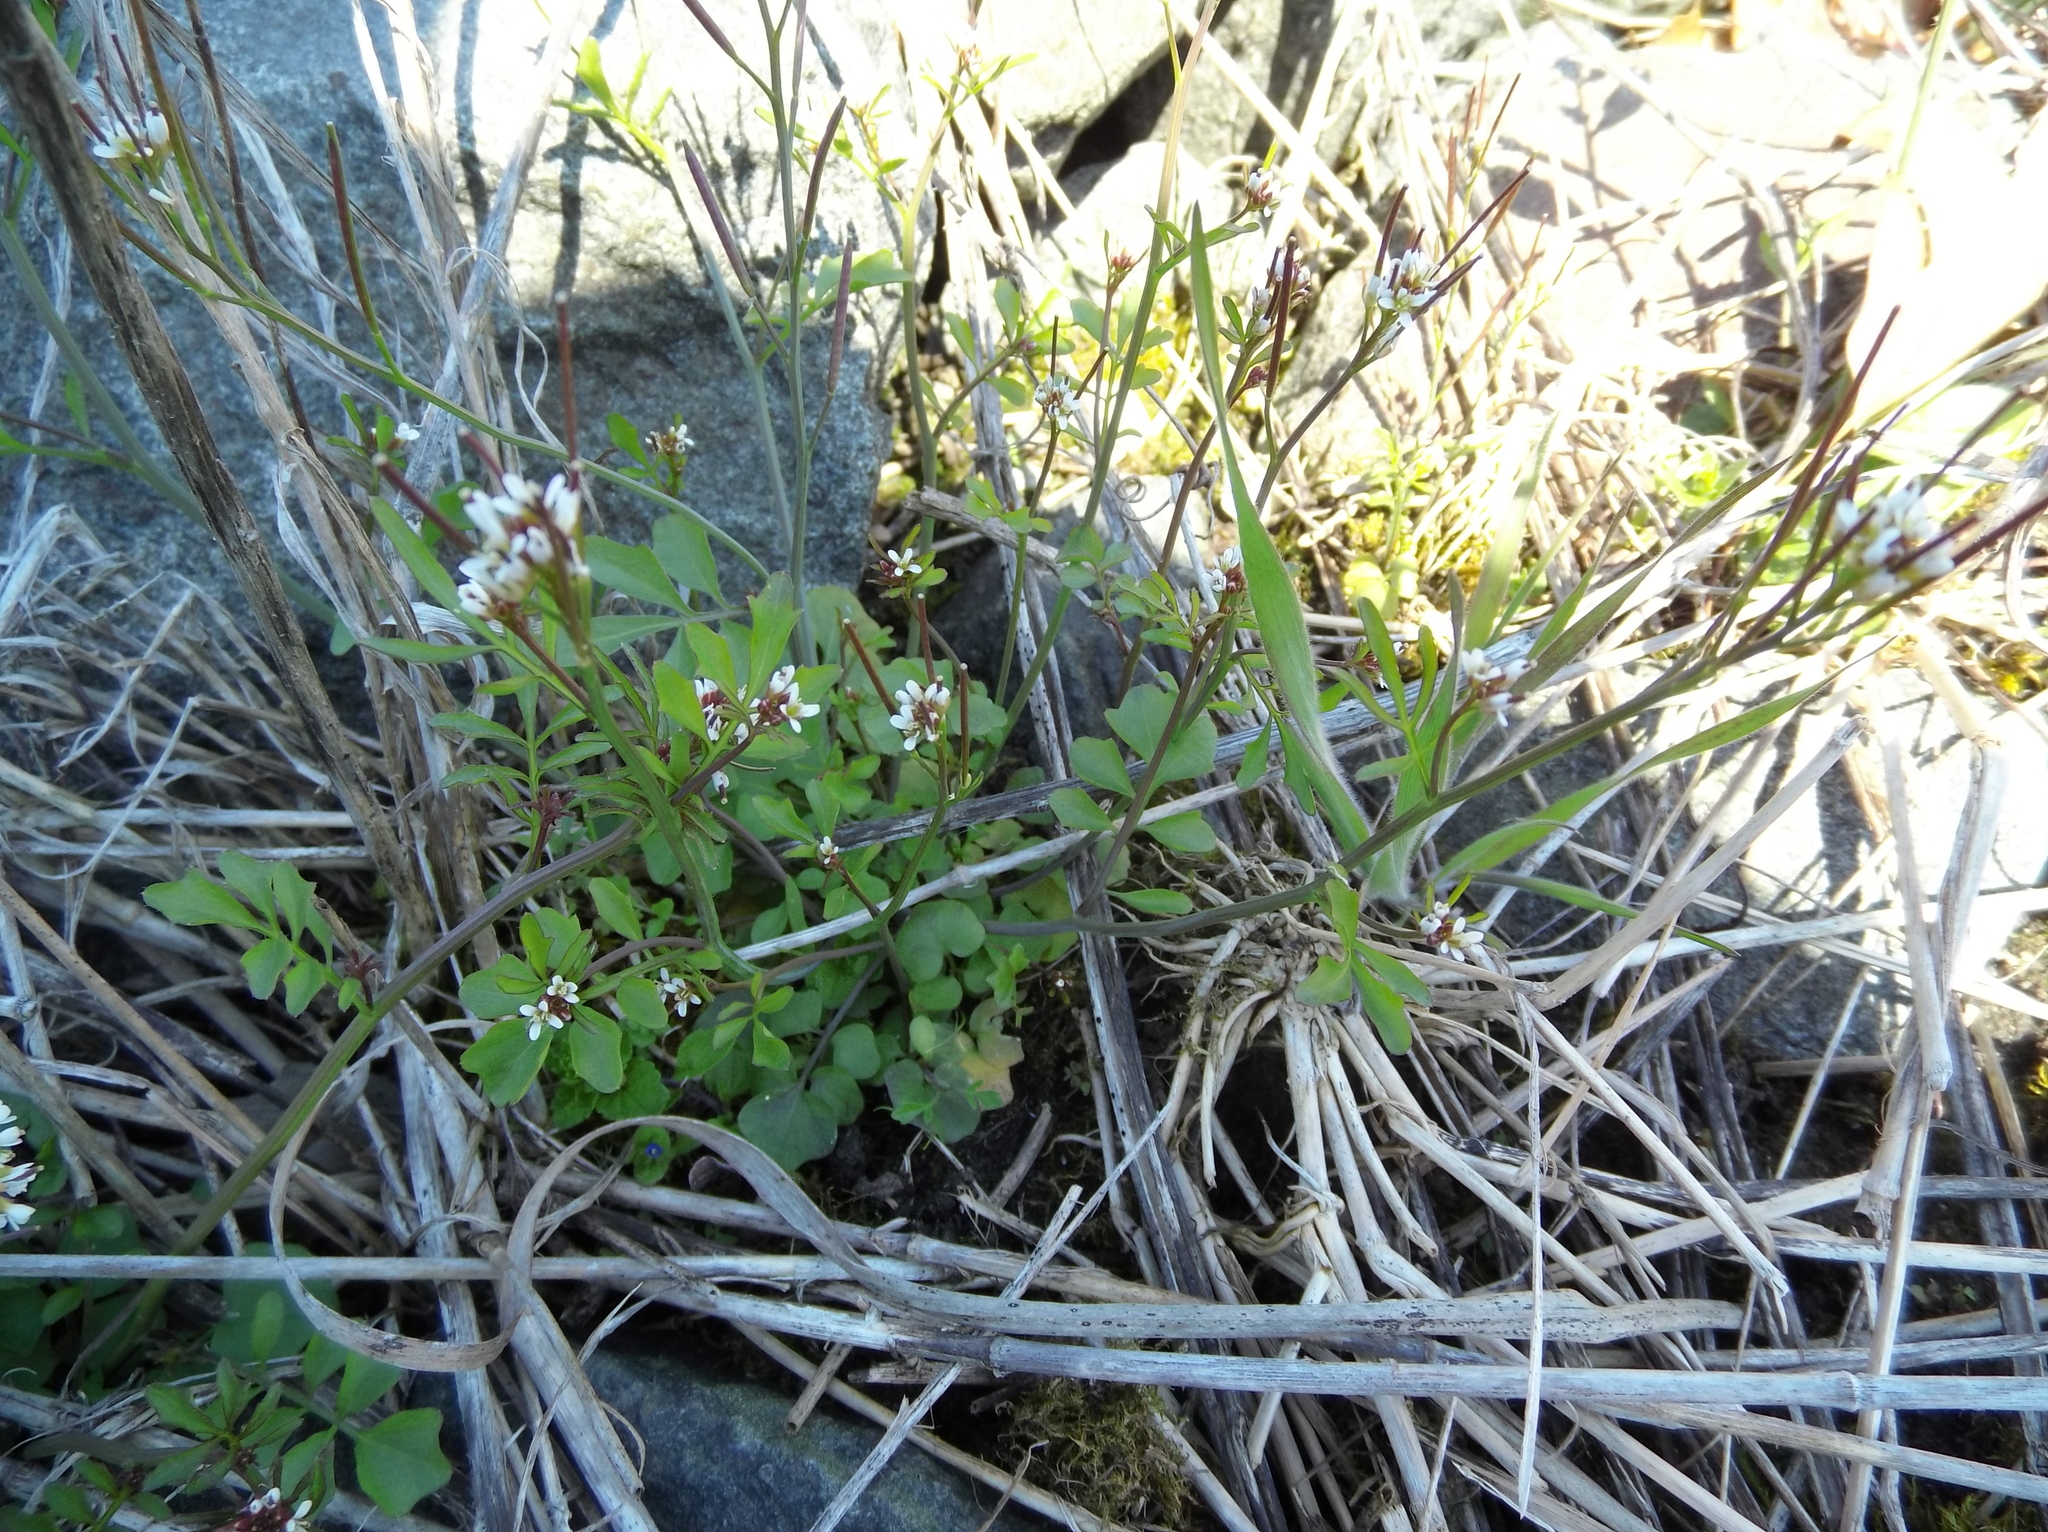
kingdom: Plantae
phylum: Tracheophyta
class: Magnoliopsida
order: Brassicales
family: Brassicaceae
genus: Cardamine
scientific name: Cardamine hirsuta
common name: Hairy bittercress
